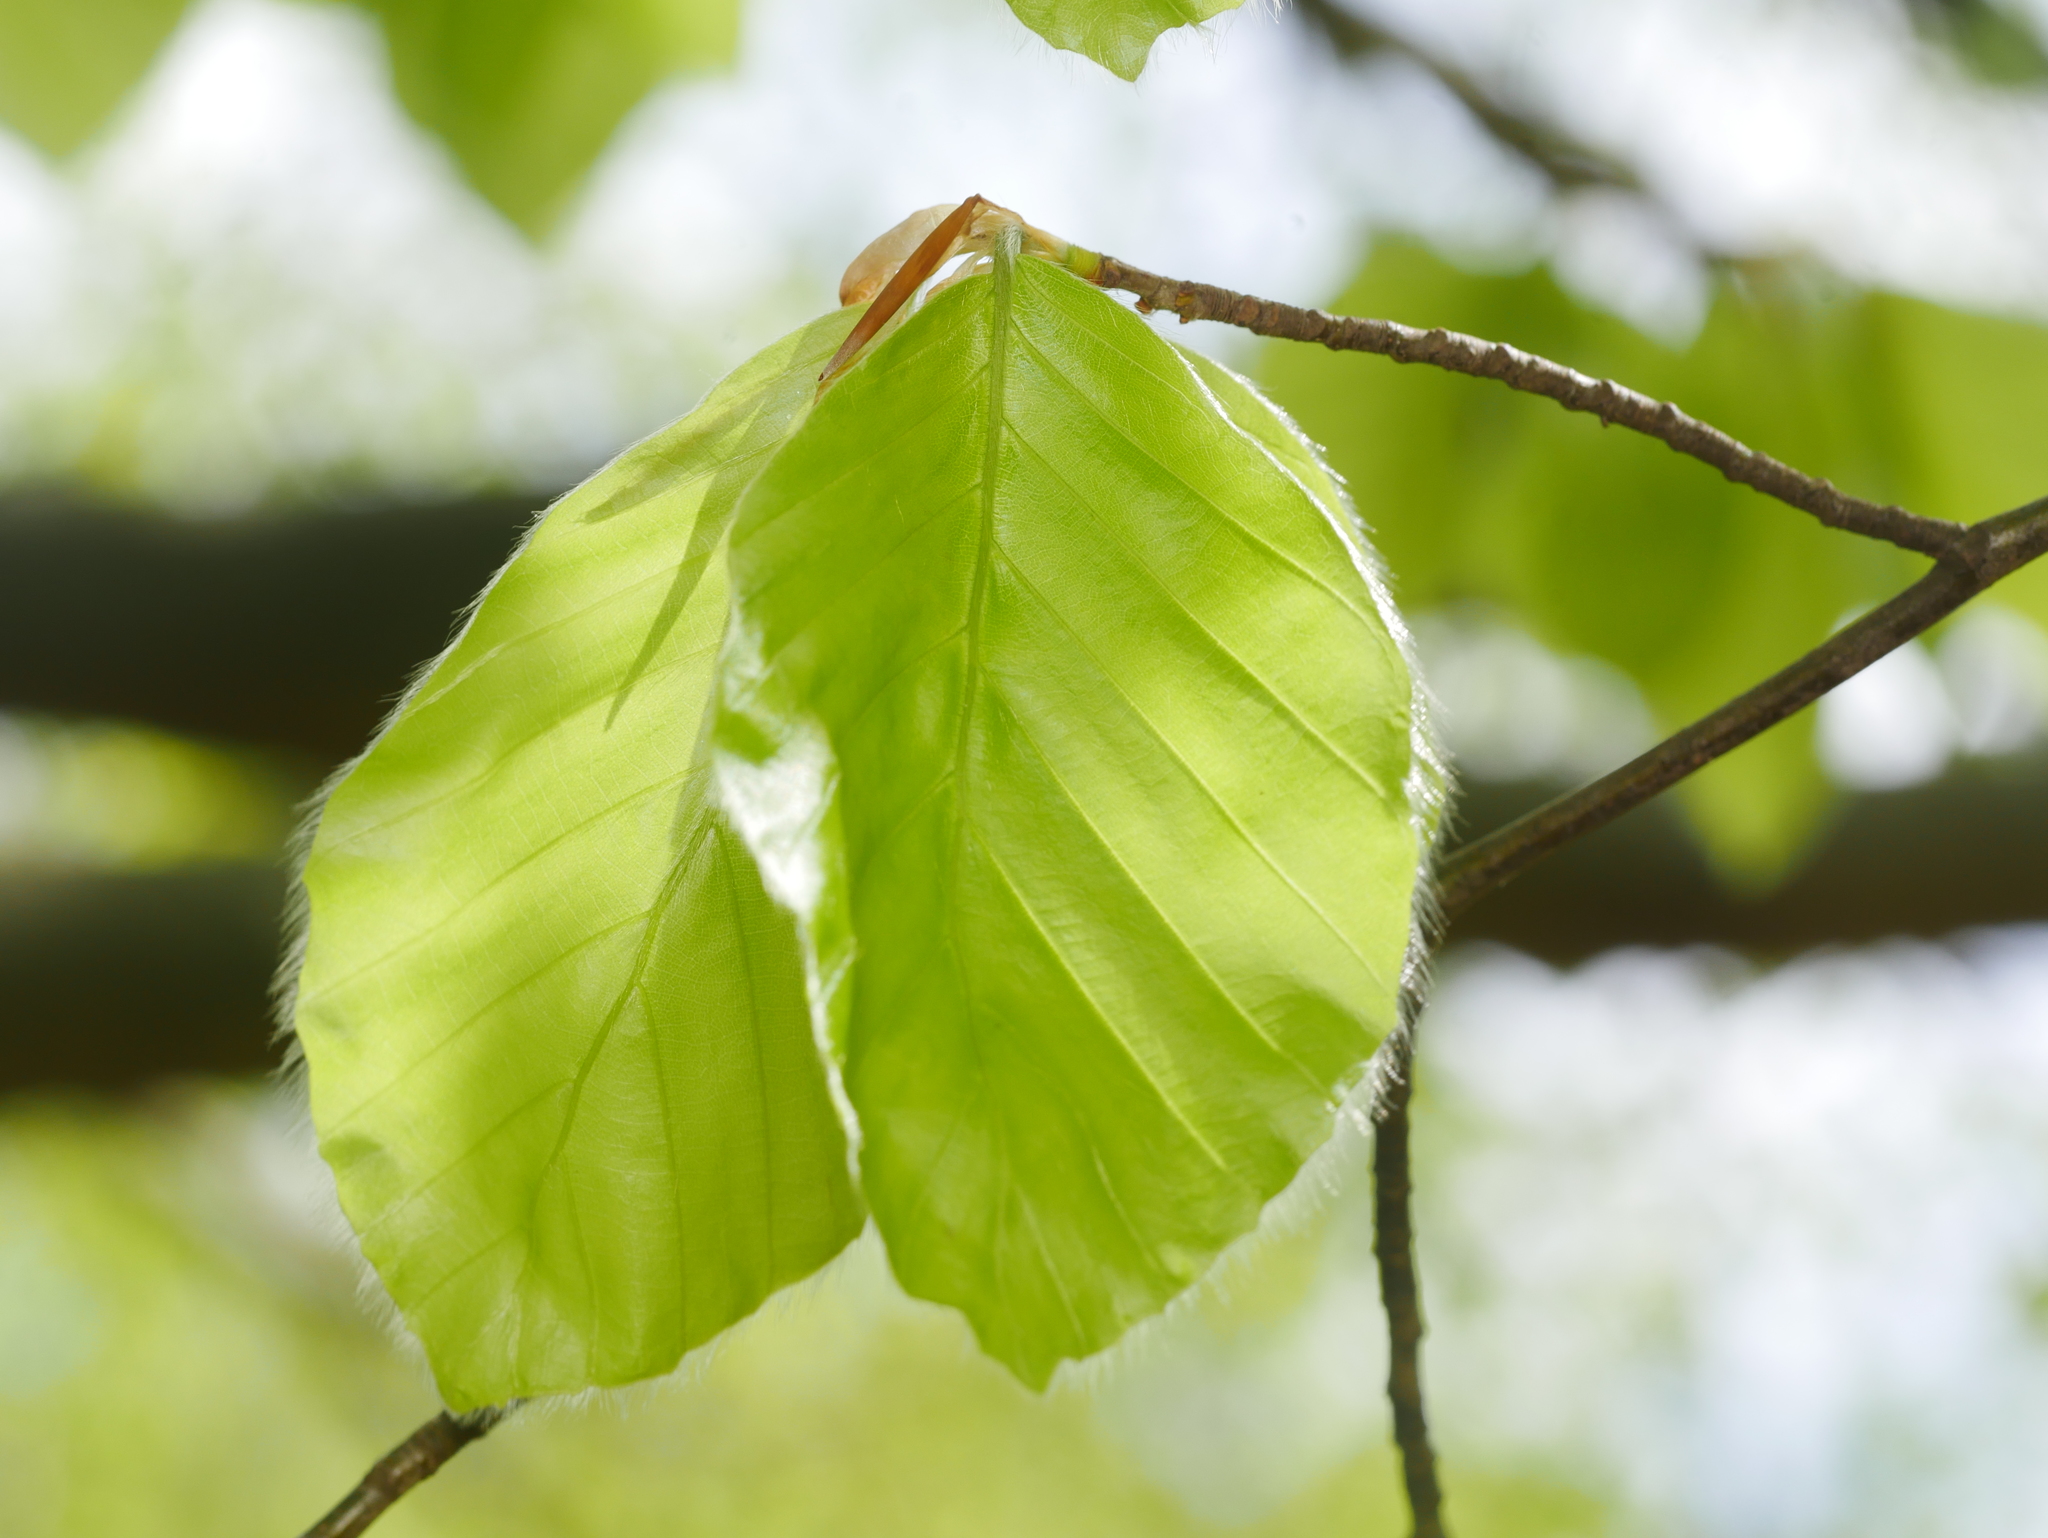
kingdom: Plantae
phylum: Tracheophyta
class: Magnoliopsida
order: Fagales
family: Fagaceae
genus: Fagus
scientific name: Fagus sylvatica
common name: Beech
